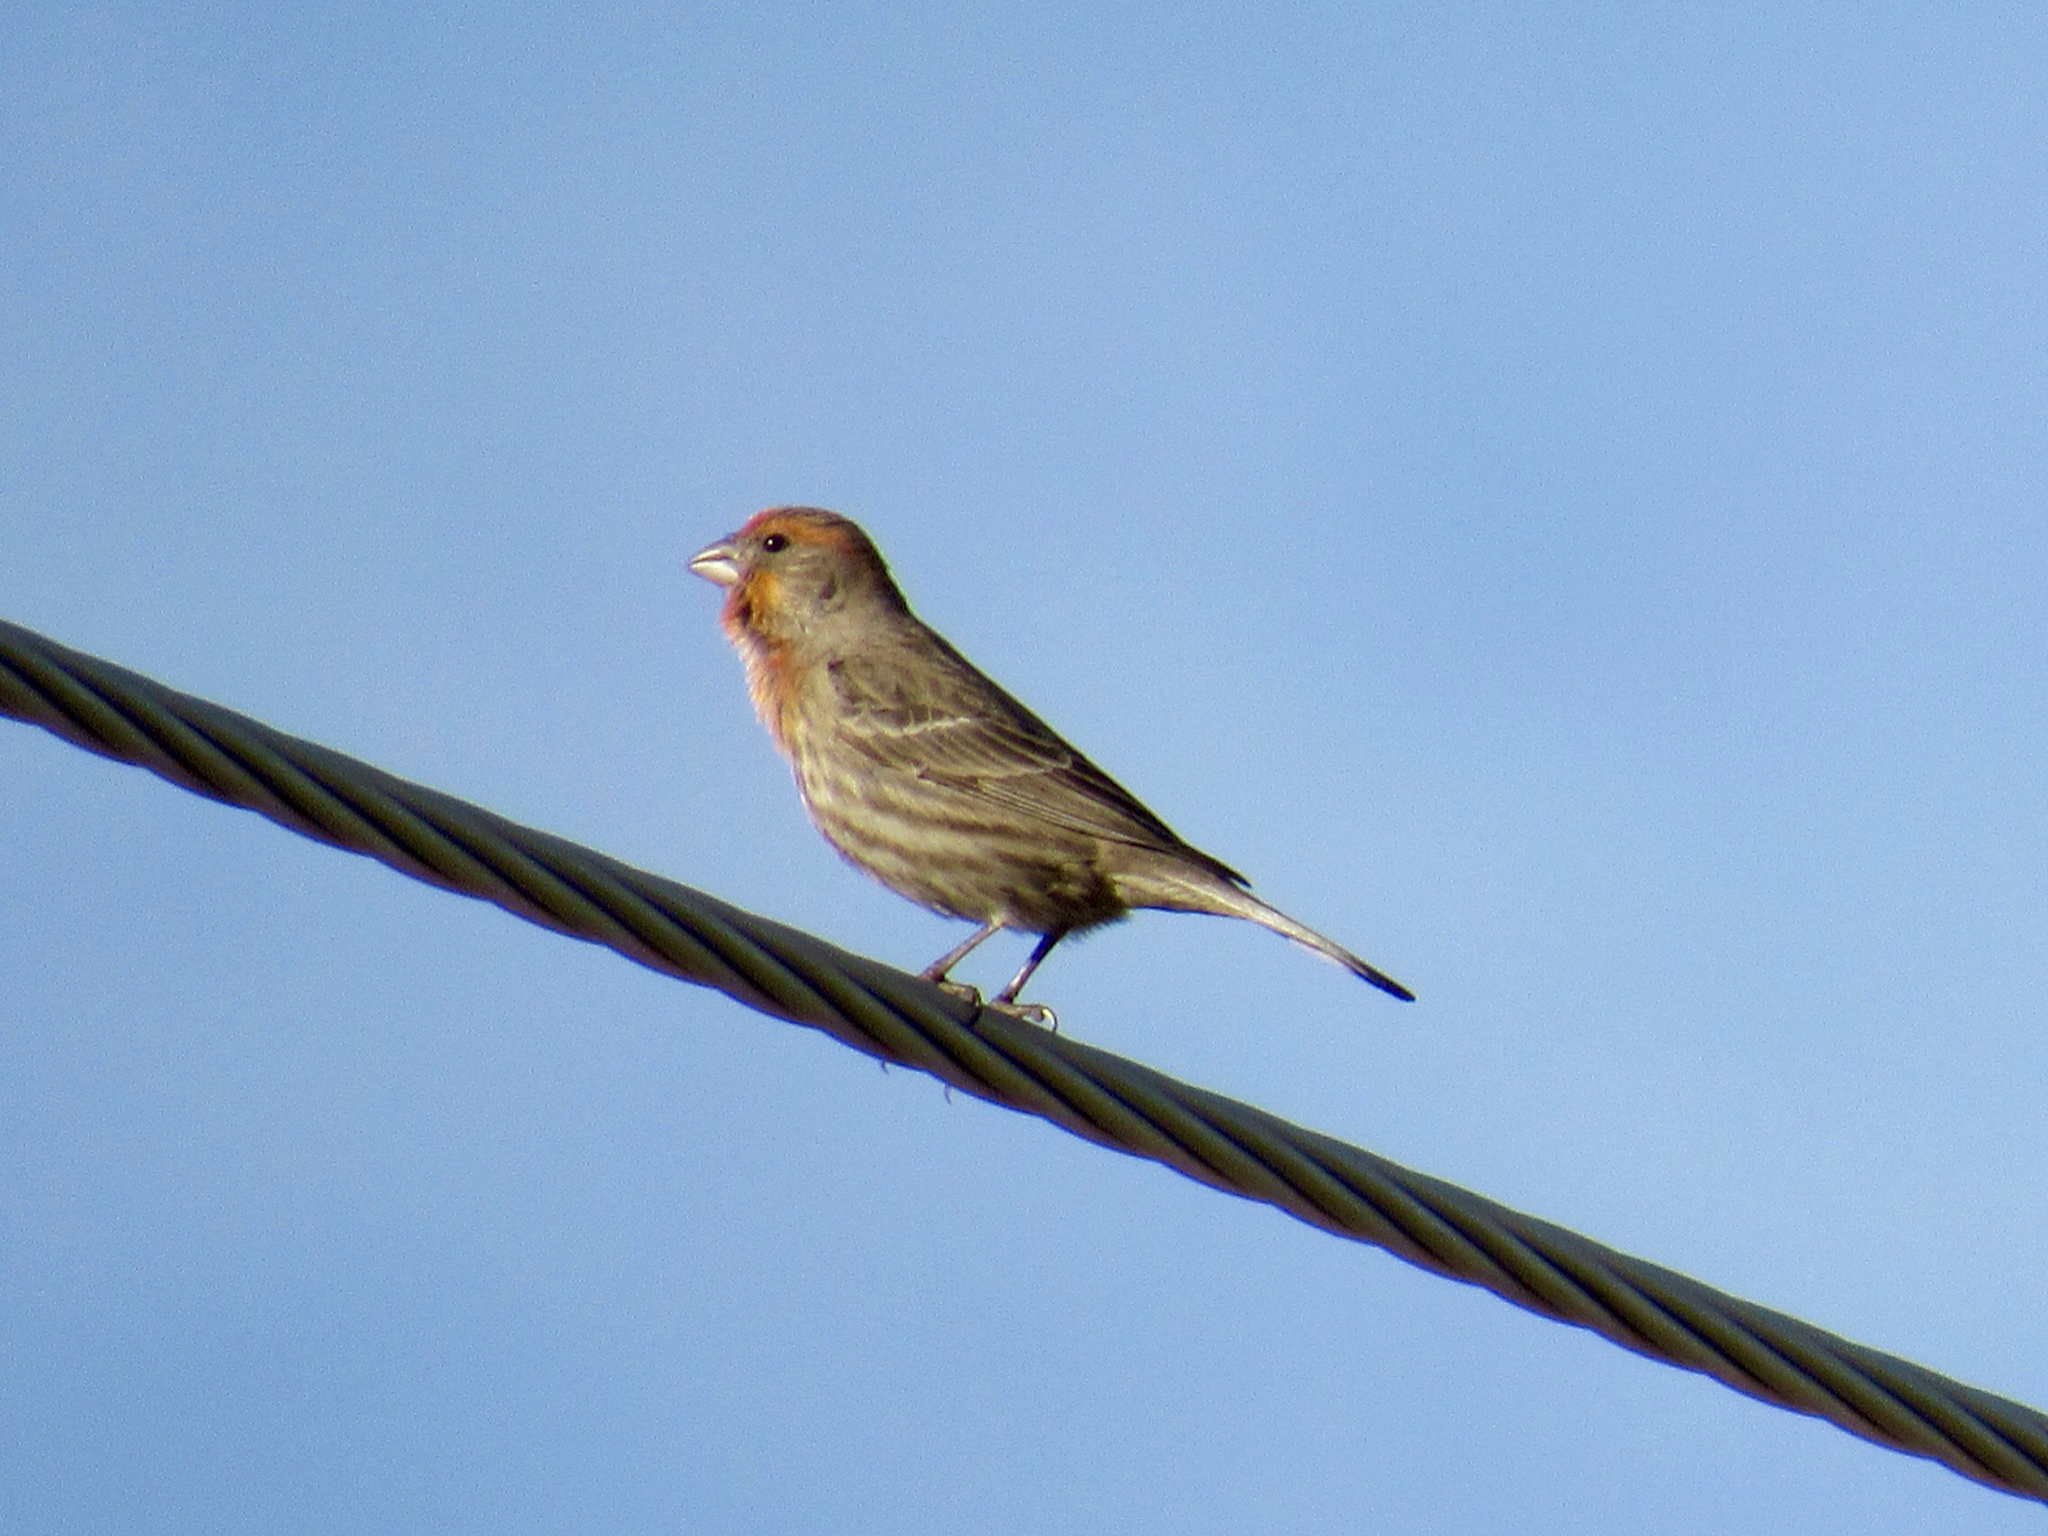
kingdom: Animalia
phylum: Chordata
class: Aves
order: Passeriformes
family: Fringillidae
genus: Haemorhous
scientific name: Haemorhous mexicanus
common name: House finch
